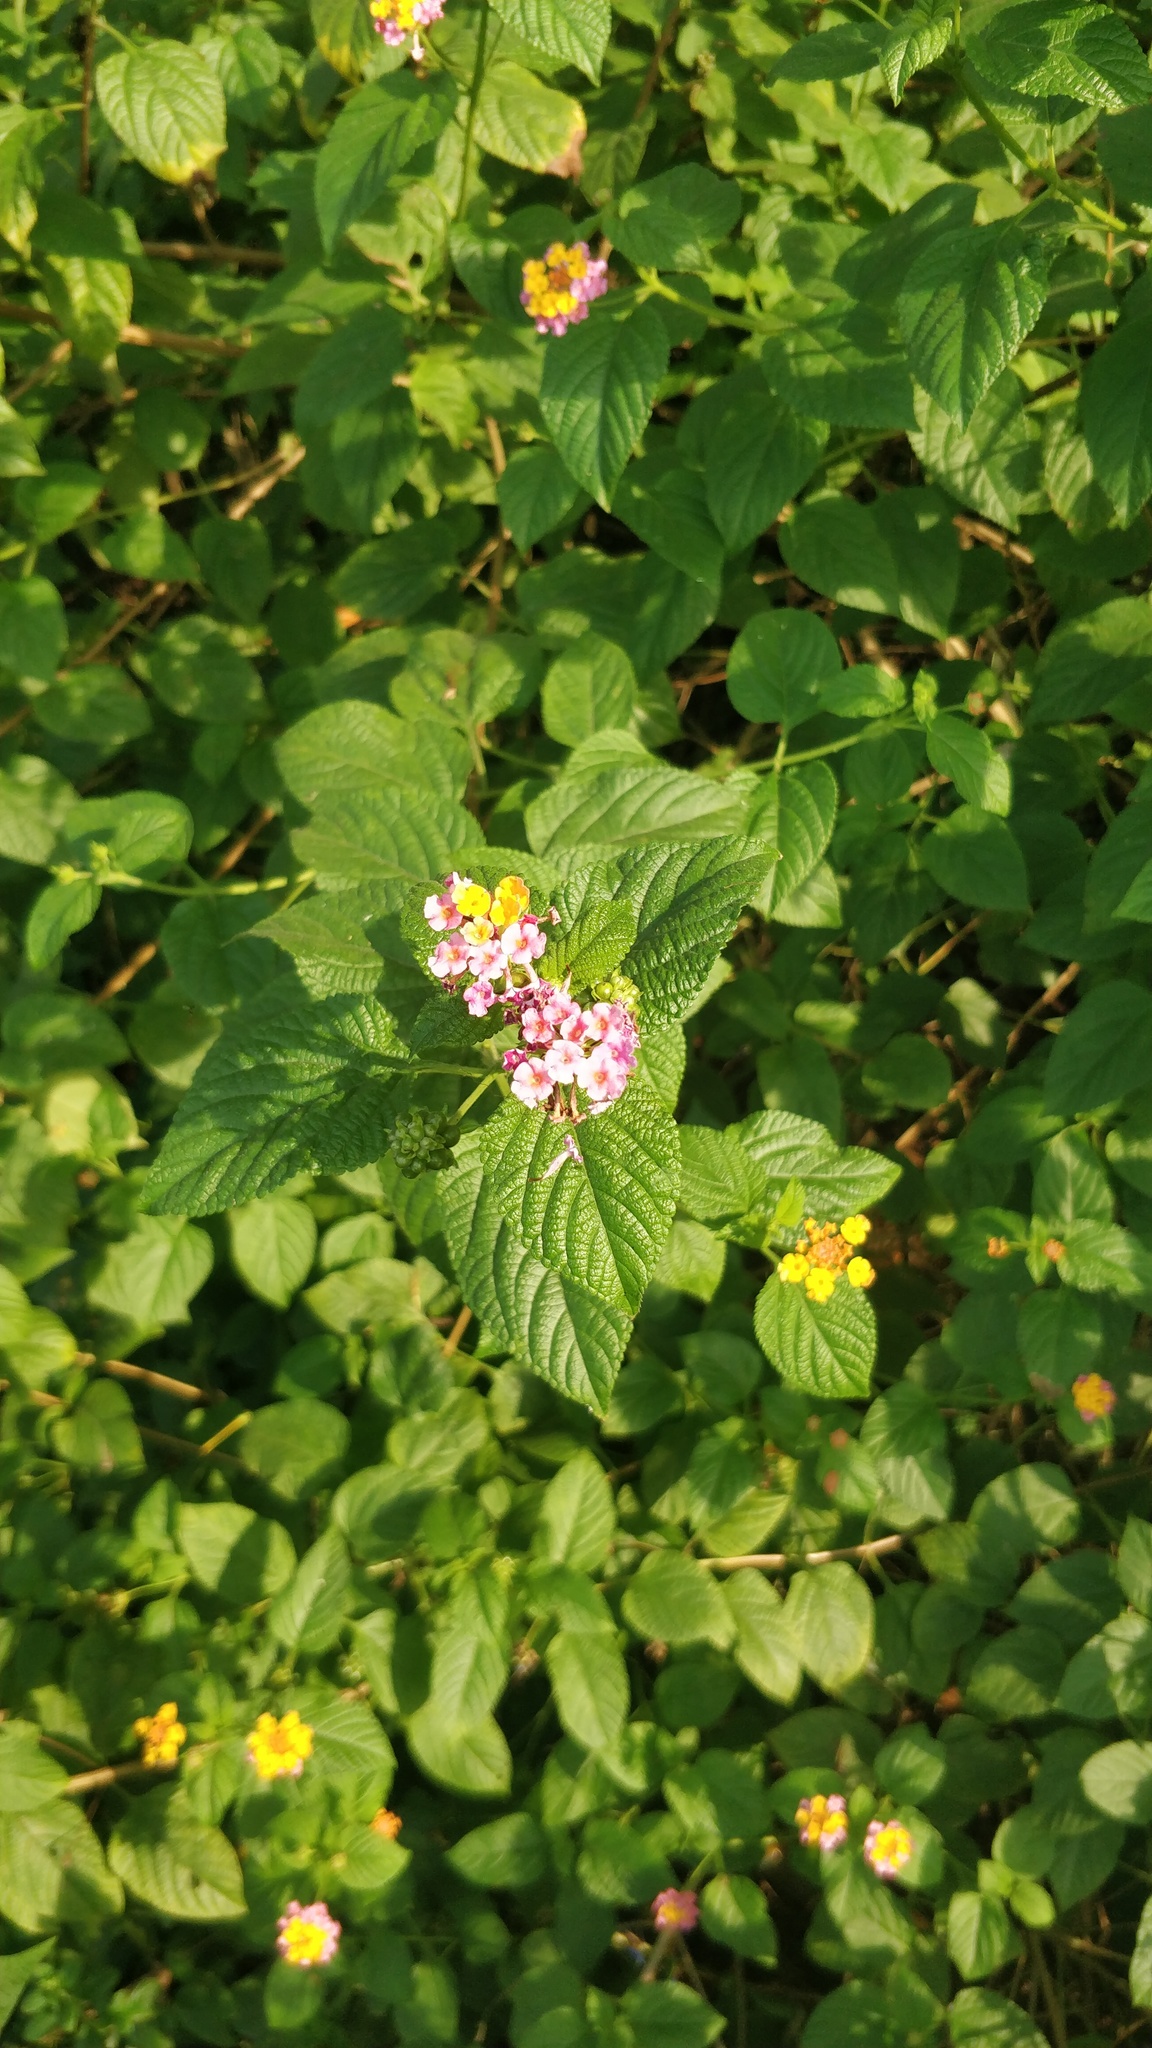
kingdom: Plantae
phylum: Tracheophyta
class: Magnoliopsida
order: Lamiales
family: Verbenaceae
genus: Lantana
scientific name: Lantana camara
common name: Lantana
